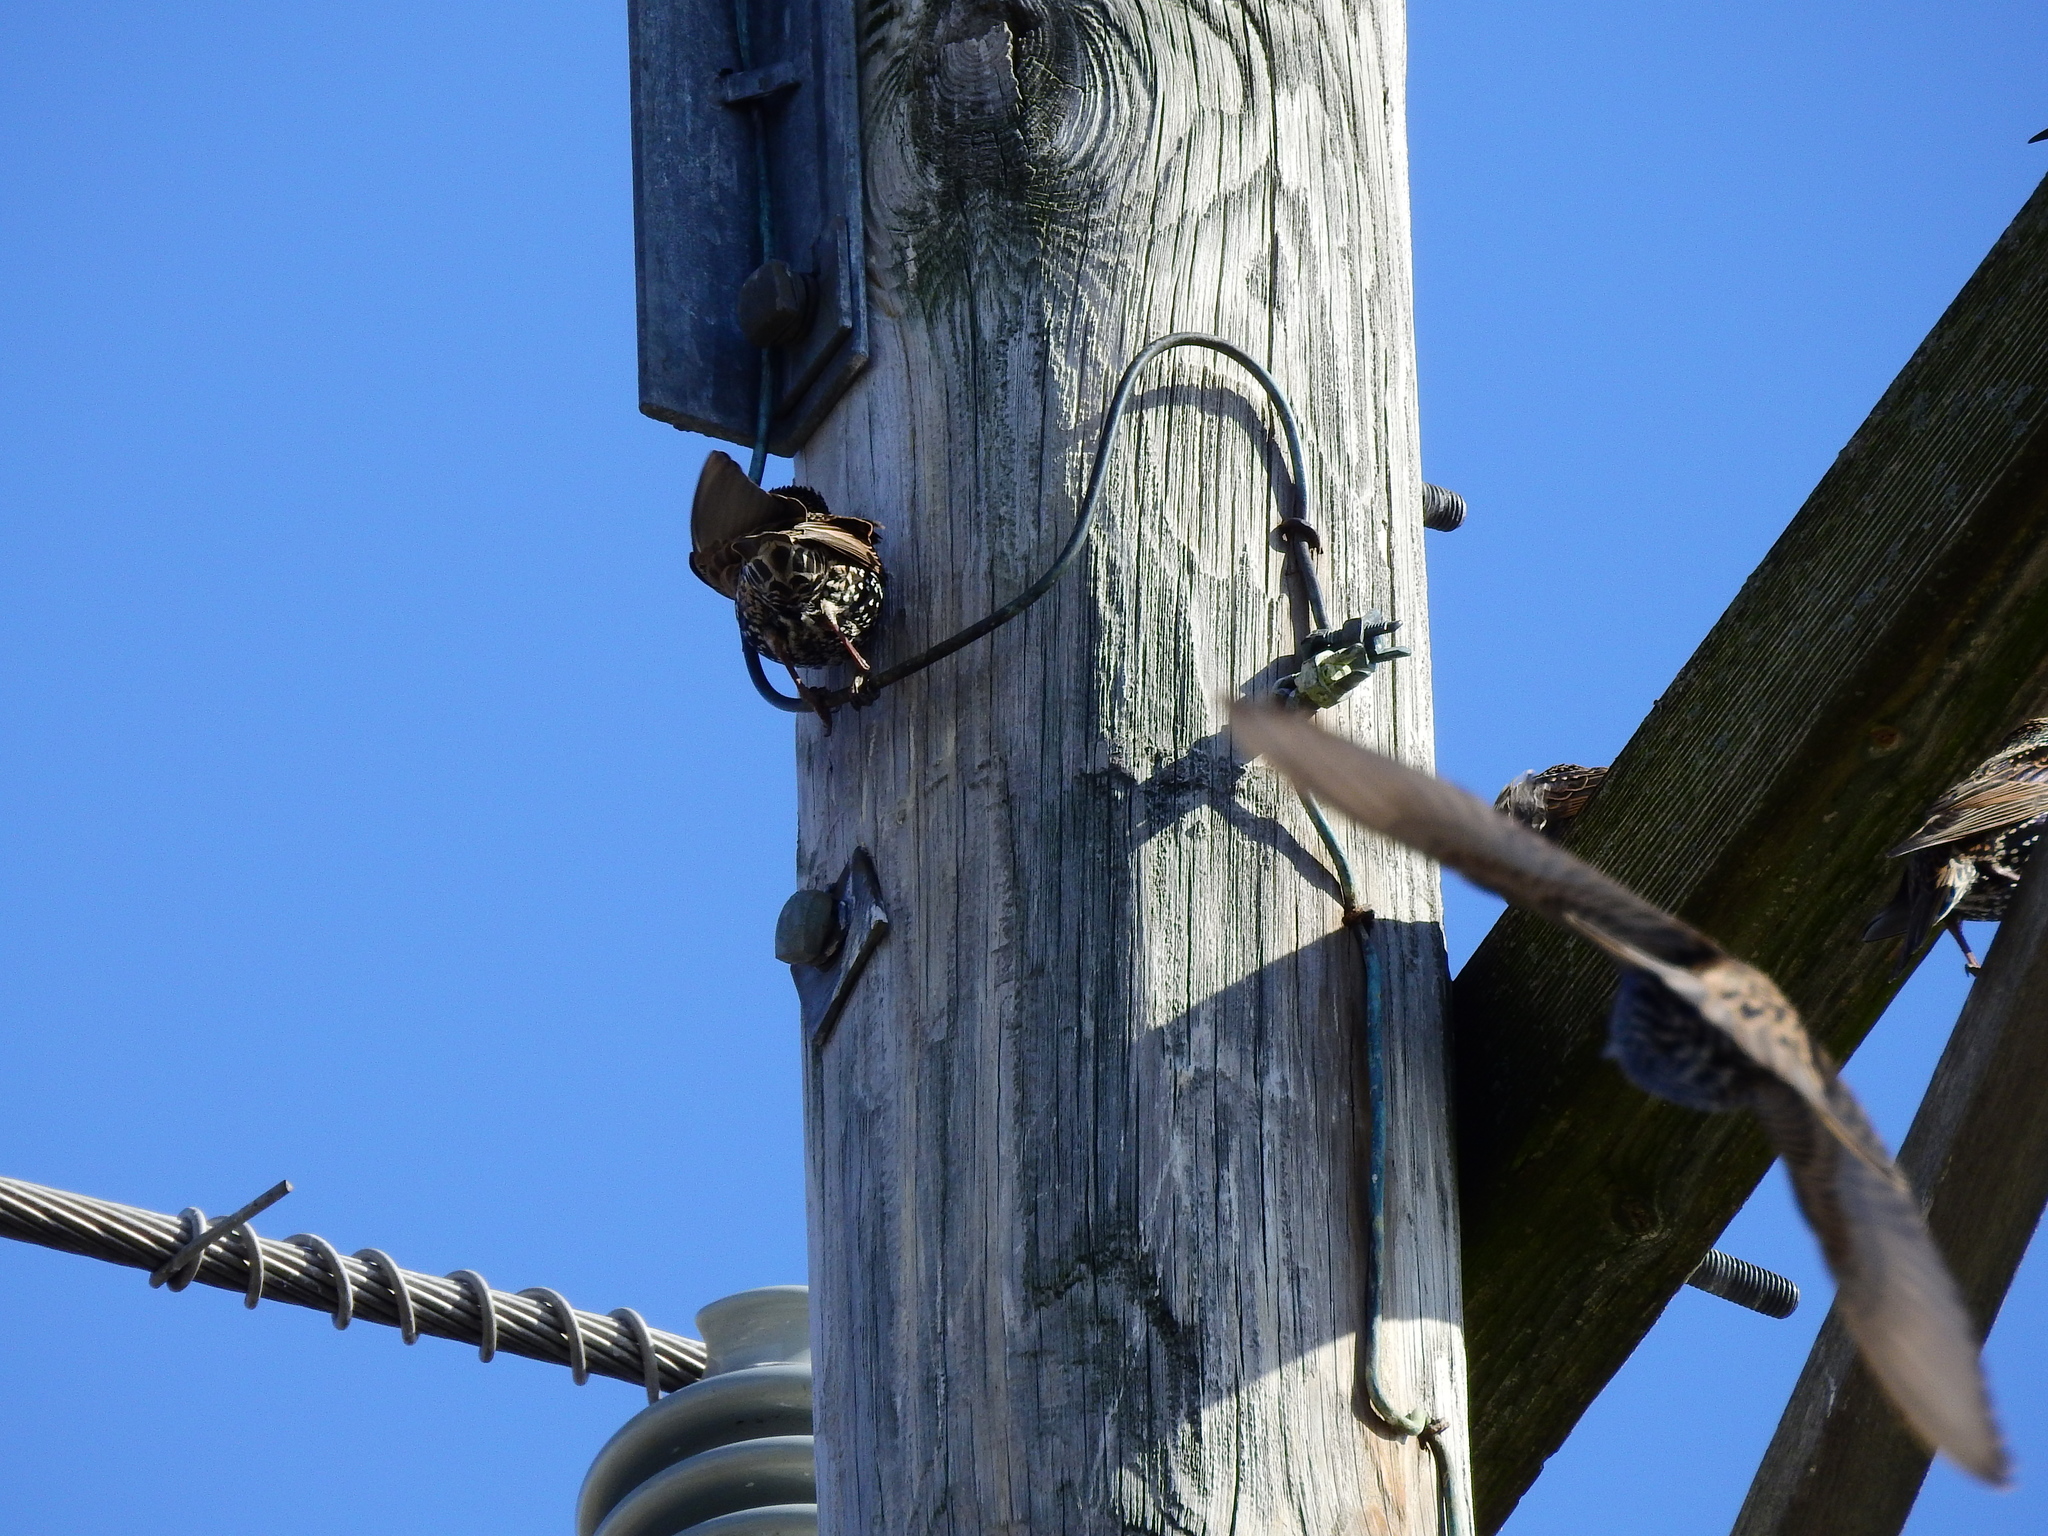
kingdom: Animalia
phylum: Chordata
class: Aves
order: Passeriformes
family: Sturnidae
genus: Sturnus
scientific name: Sturnus vulgaris
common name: Common starling
